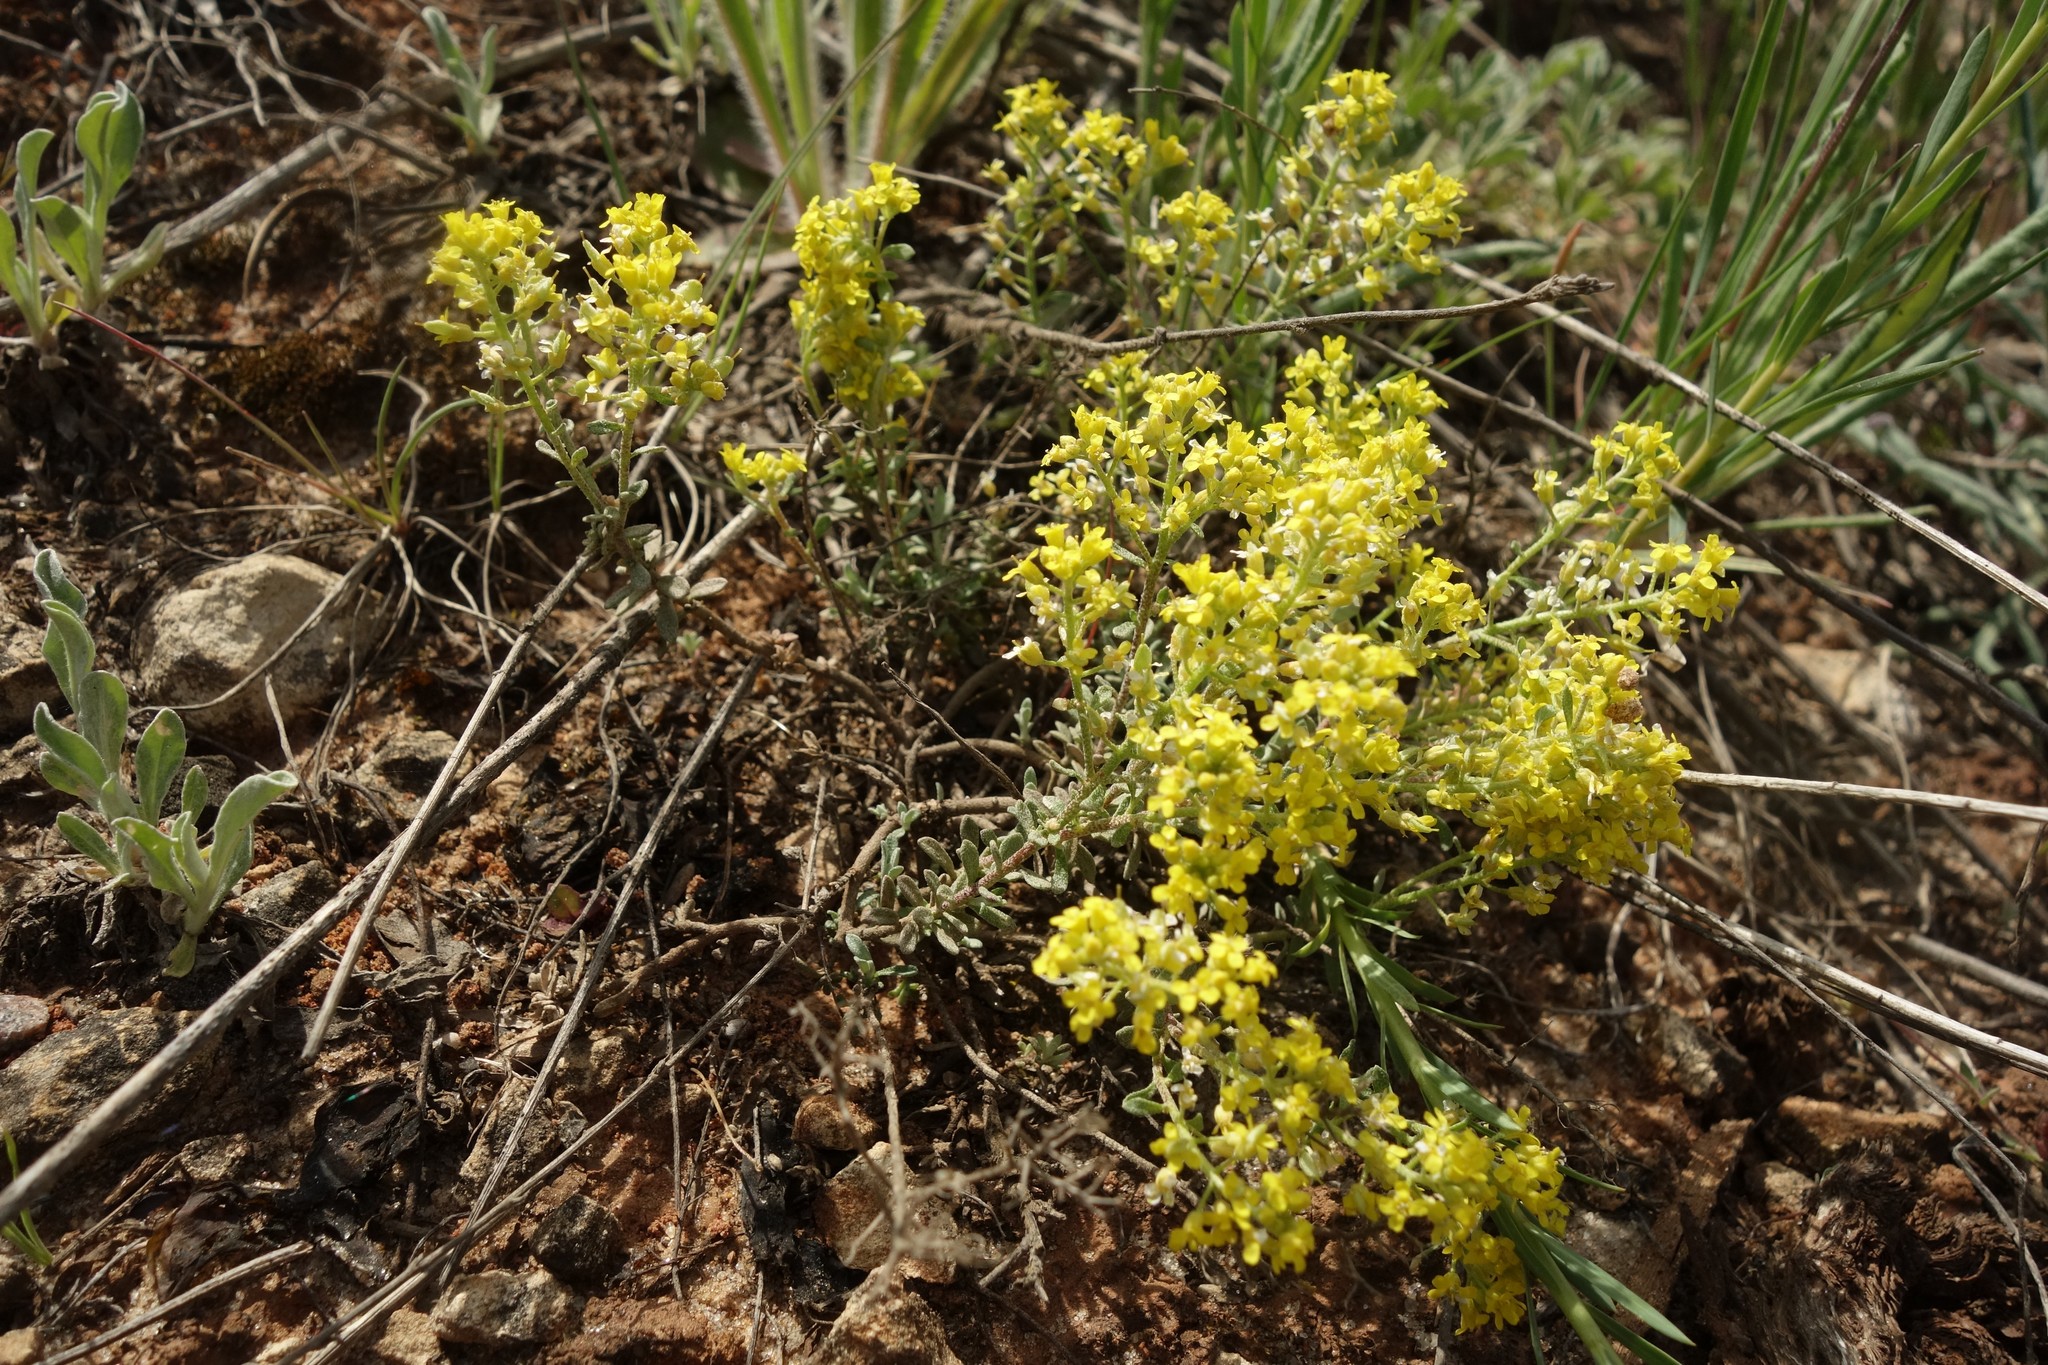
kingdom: Plantae
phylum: Tracheophyta
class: Magnoliopsida
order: Brassicales
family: Brassicaceae
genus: Odontarrhena
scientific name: Odontarrhena tortuosa
